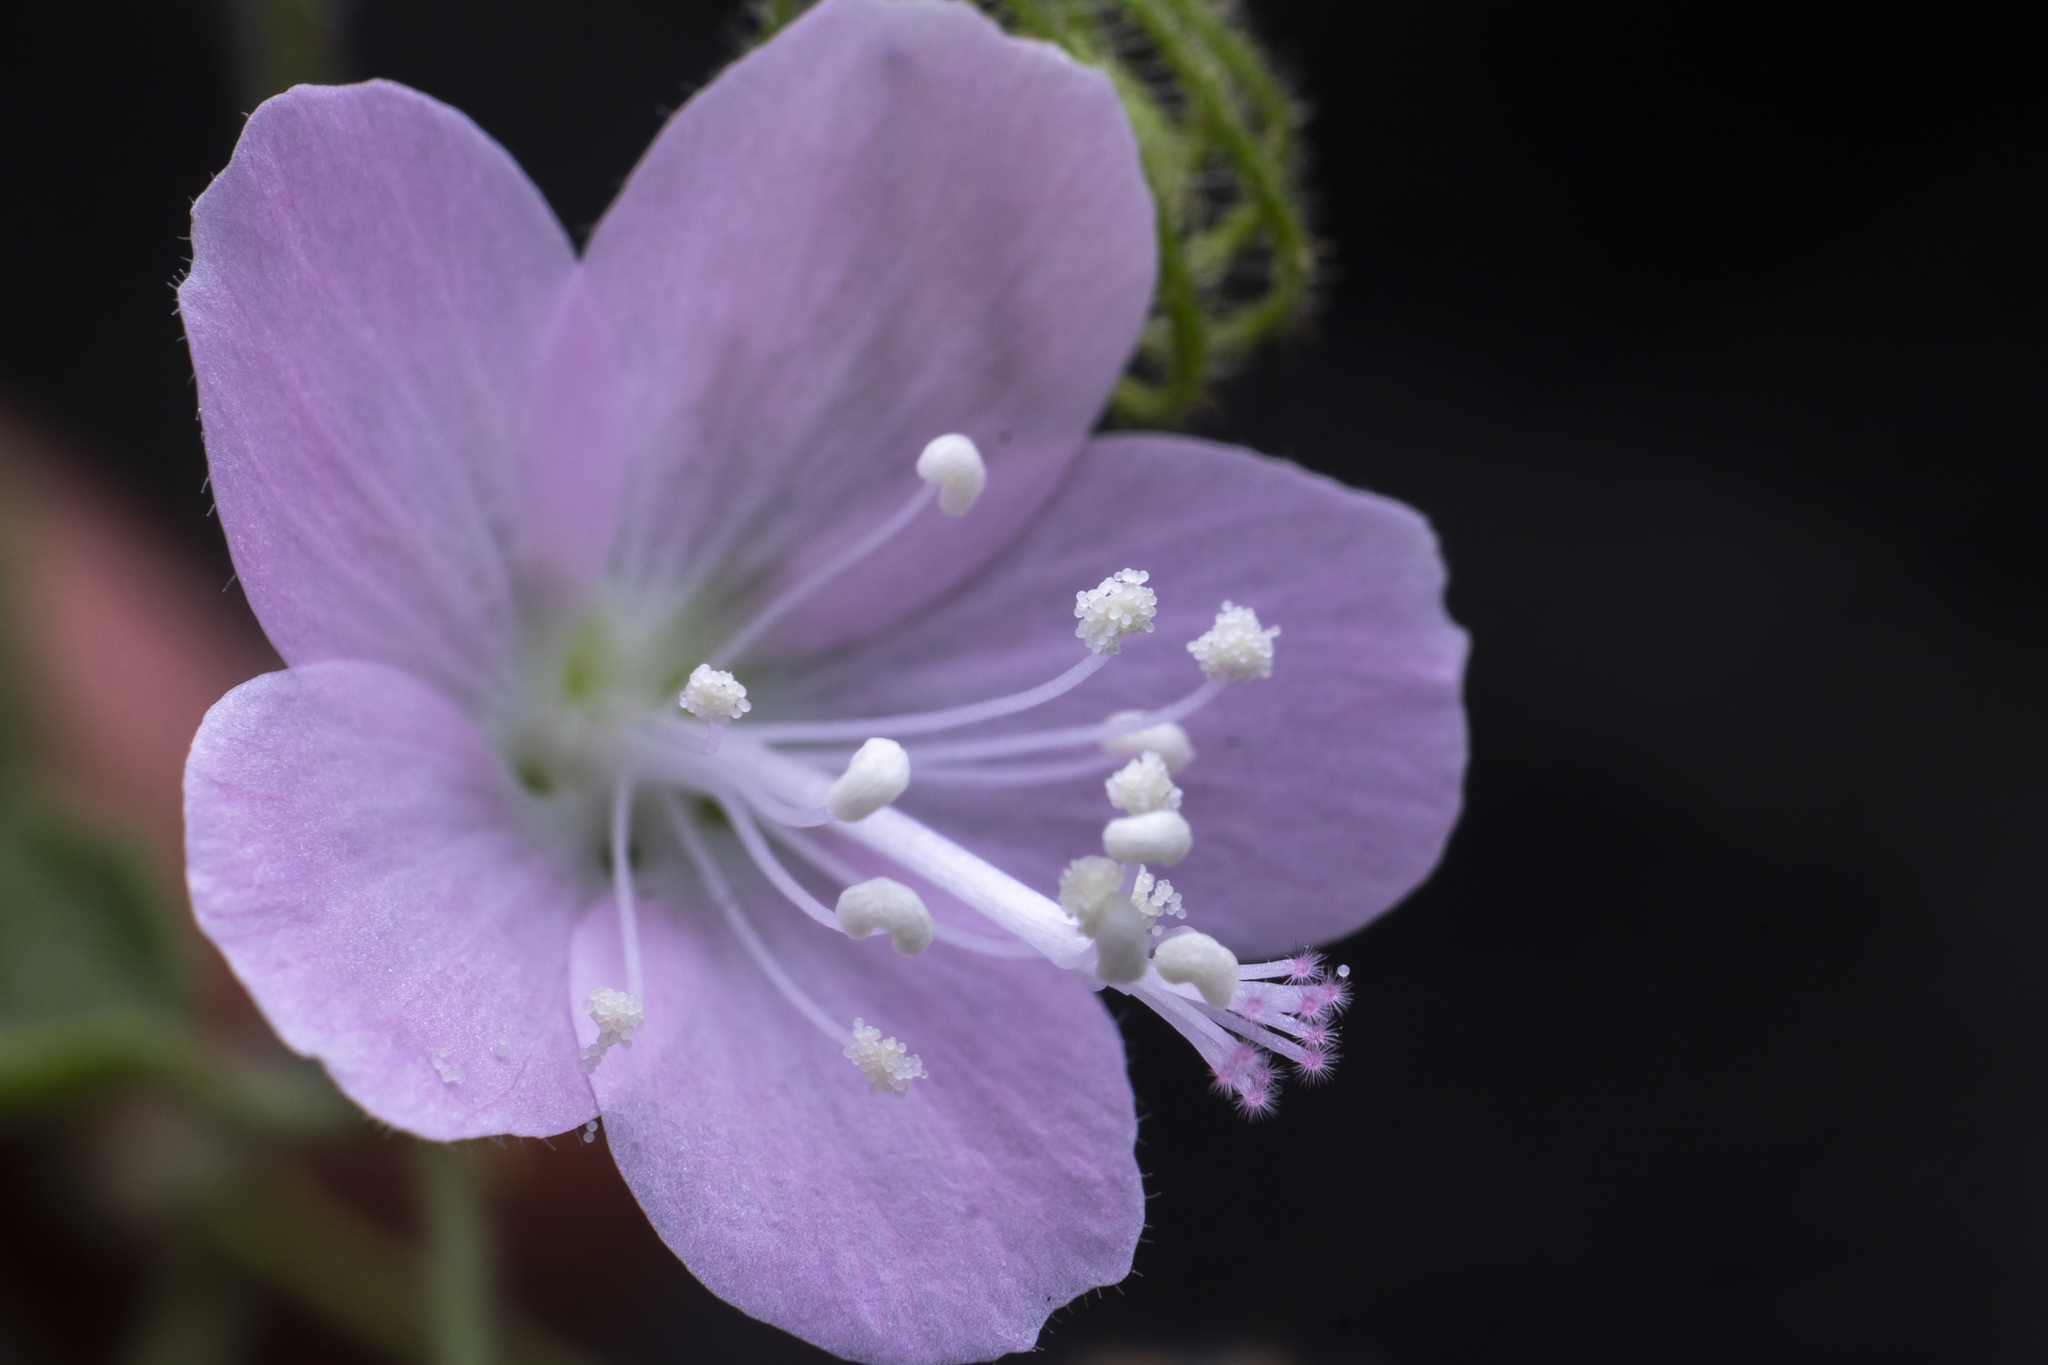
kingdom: Plantae
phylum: Tracheophyta
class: Magnoliopsida
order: Malvales
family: Malvaceae
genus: Pavonia
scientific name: Pavonia zeylonica
